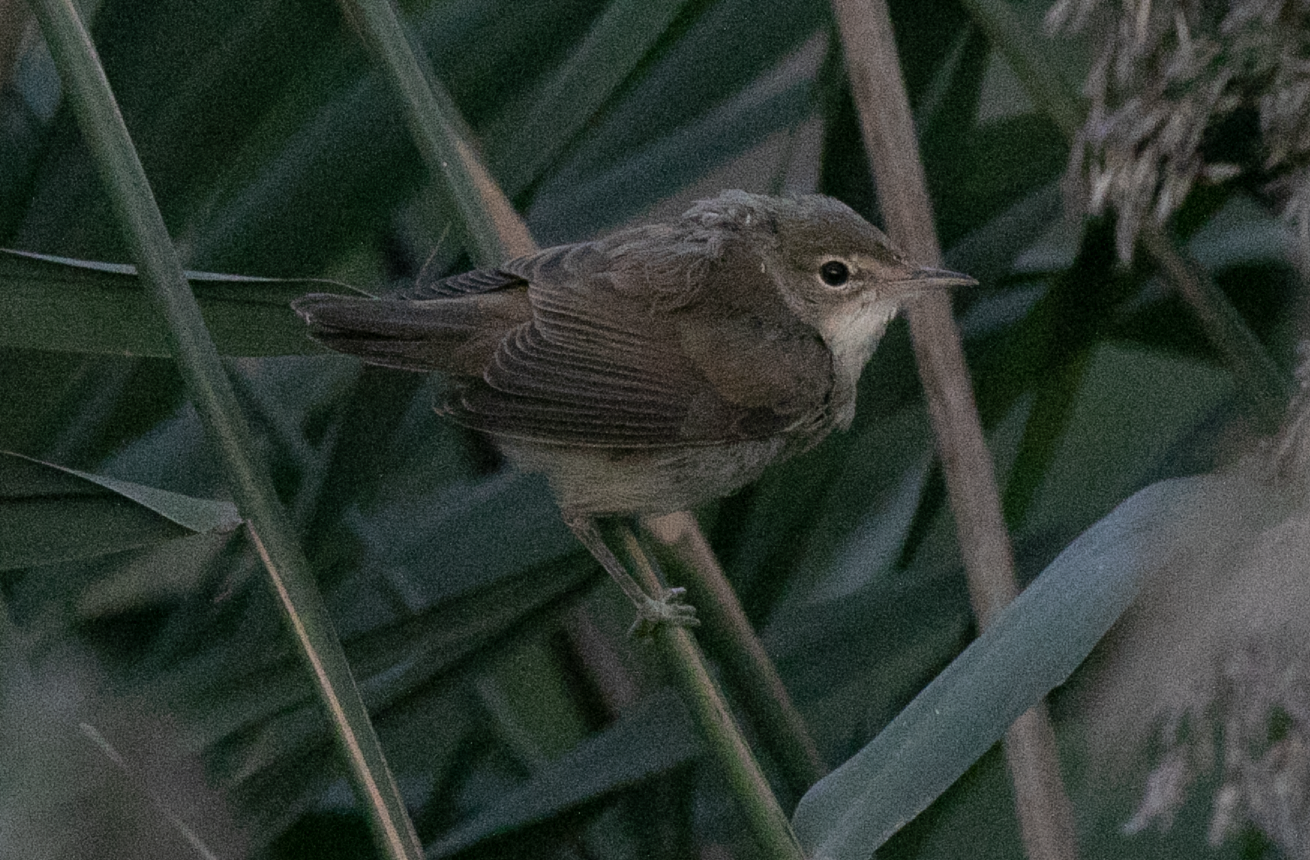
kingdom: Animalia
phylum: Chordata
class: Aves
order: Passeriformes
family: Acrocephalidae
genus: Acrocephalus
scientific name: Acrocephalus scirpaceus
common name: Eurasian reed warbler
